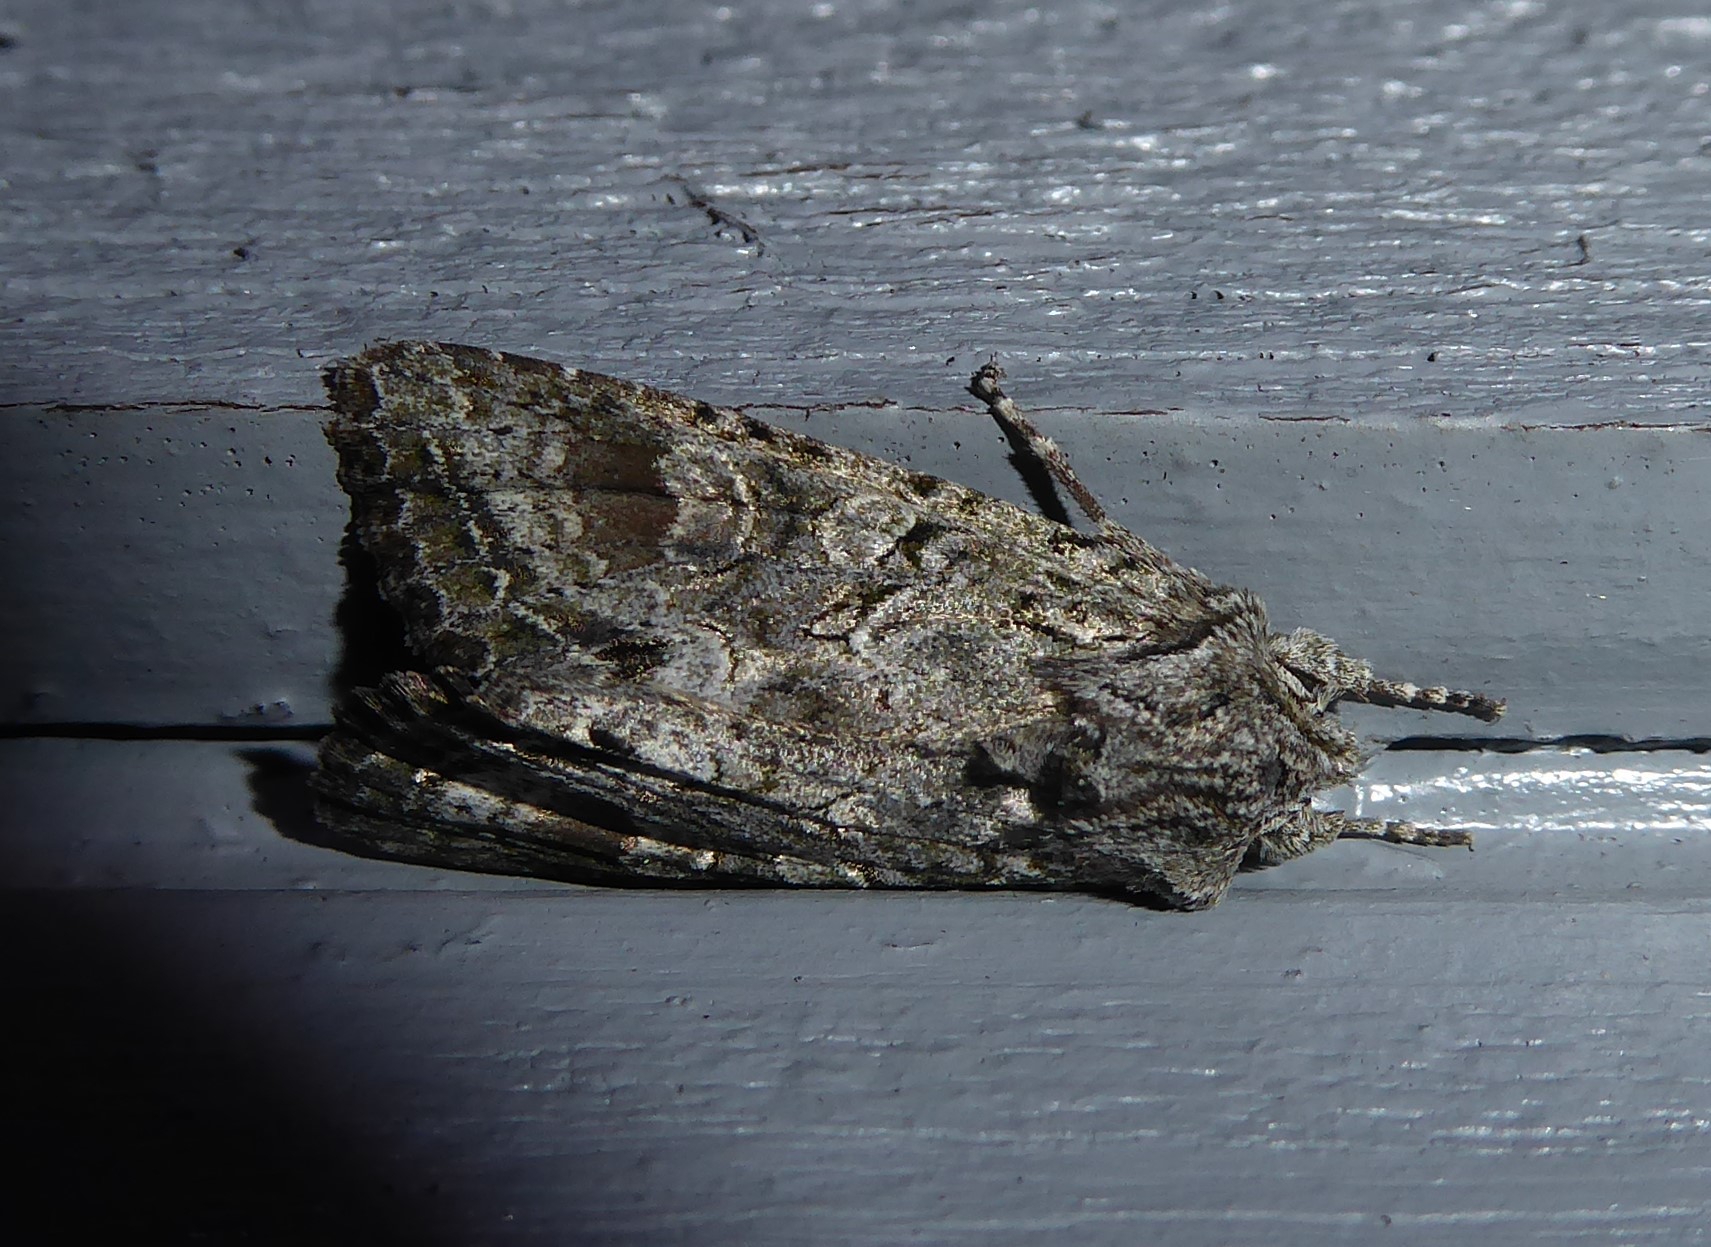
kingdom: Animalia
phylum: Arthropoda
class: Insecta
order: Lepidoptera
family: Noctuidae
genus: Ichneutica
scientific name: Ichneutica mutans
